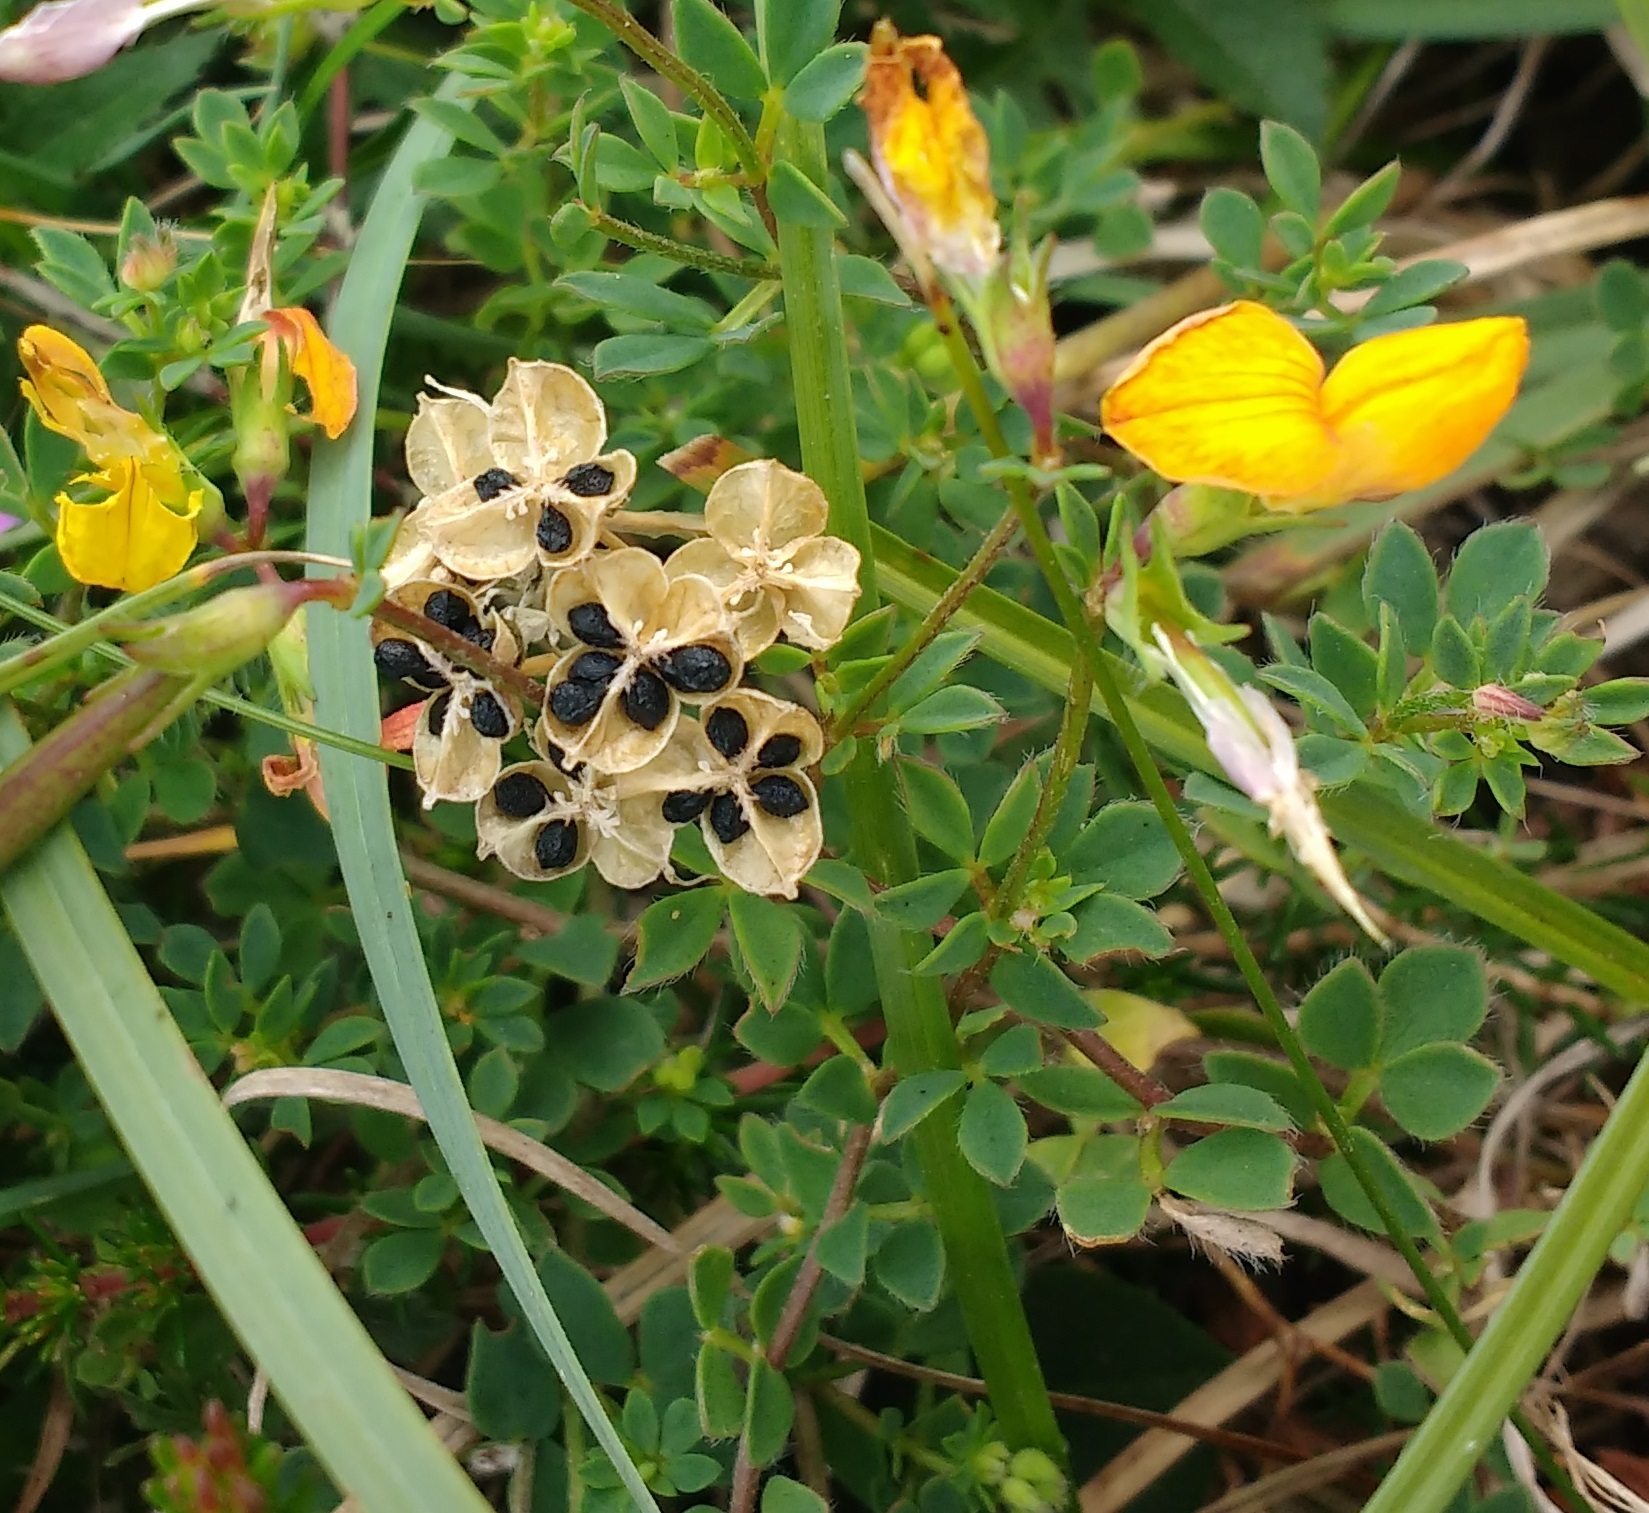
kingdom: Plantae
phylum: Tracheophyta
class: Magnoliopsida
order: Fabales
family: Fabaceae
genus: Lotus
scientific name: Lotus corniculatus
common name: Common bird's-foot-trefoil
